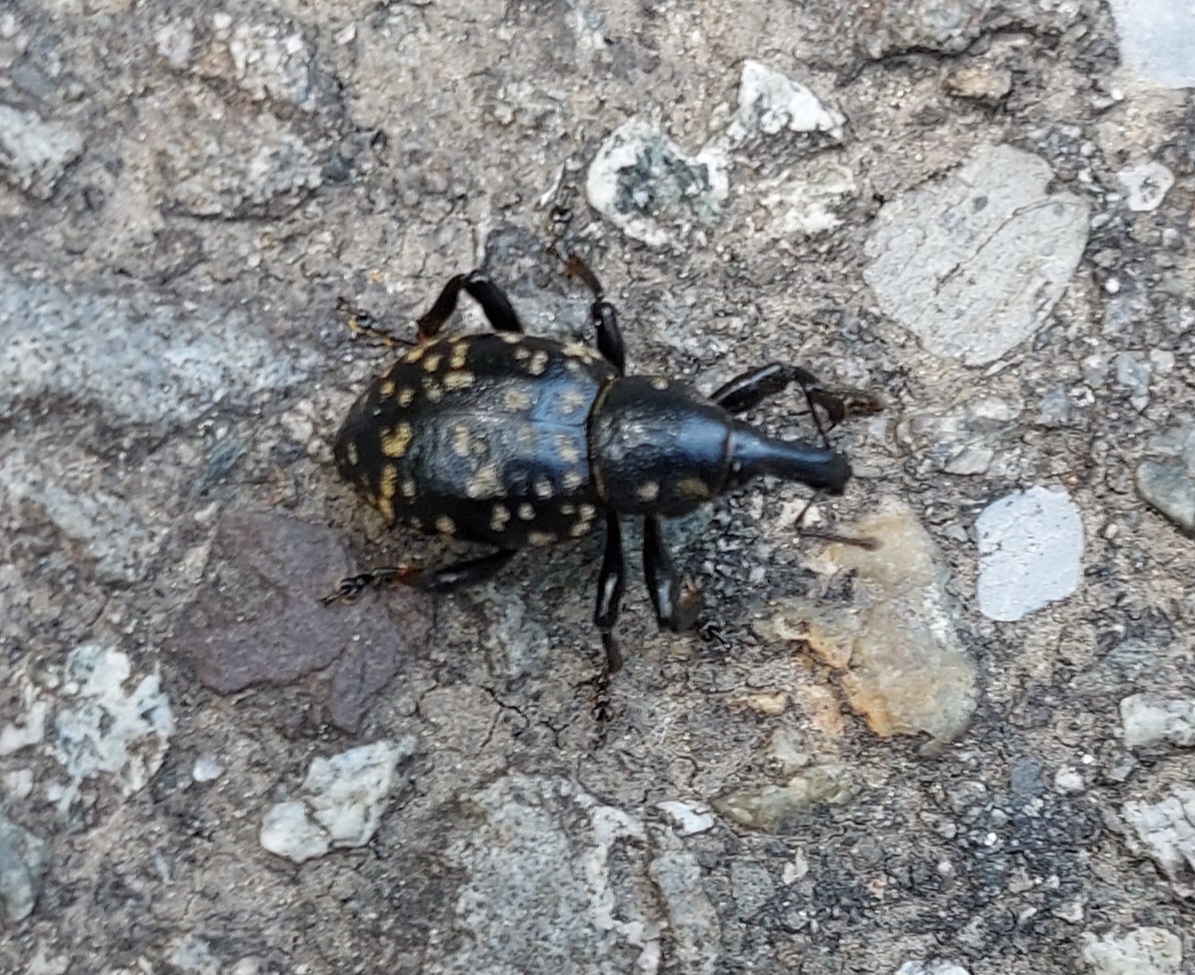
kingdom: Animalia
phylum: Arthropoda
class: Insecta
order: Coleoptera
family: Curculionidae
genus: Liparus
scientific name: Liparus germanus
